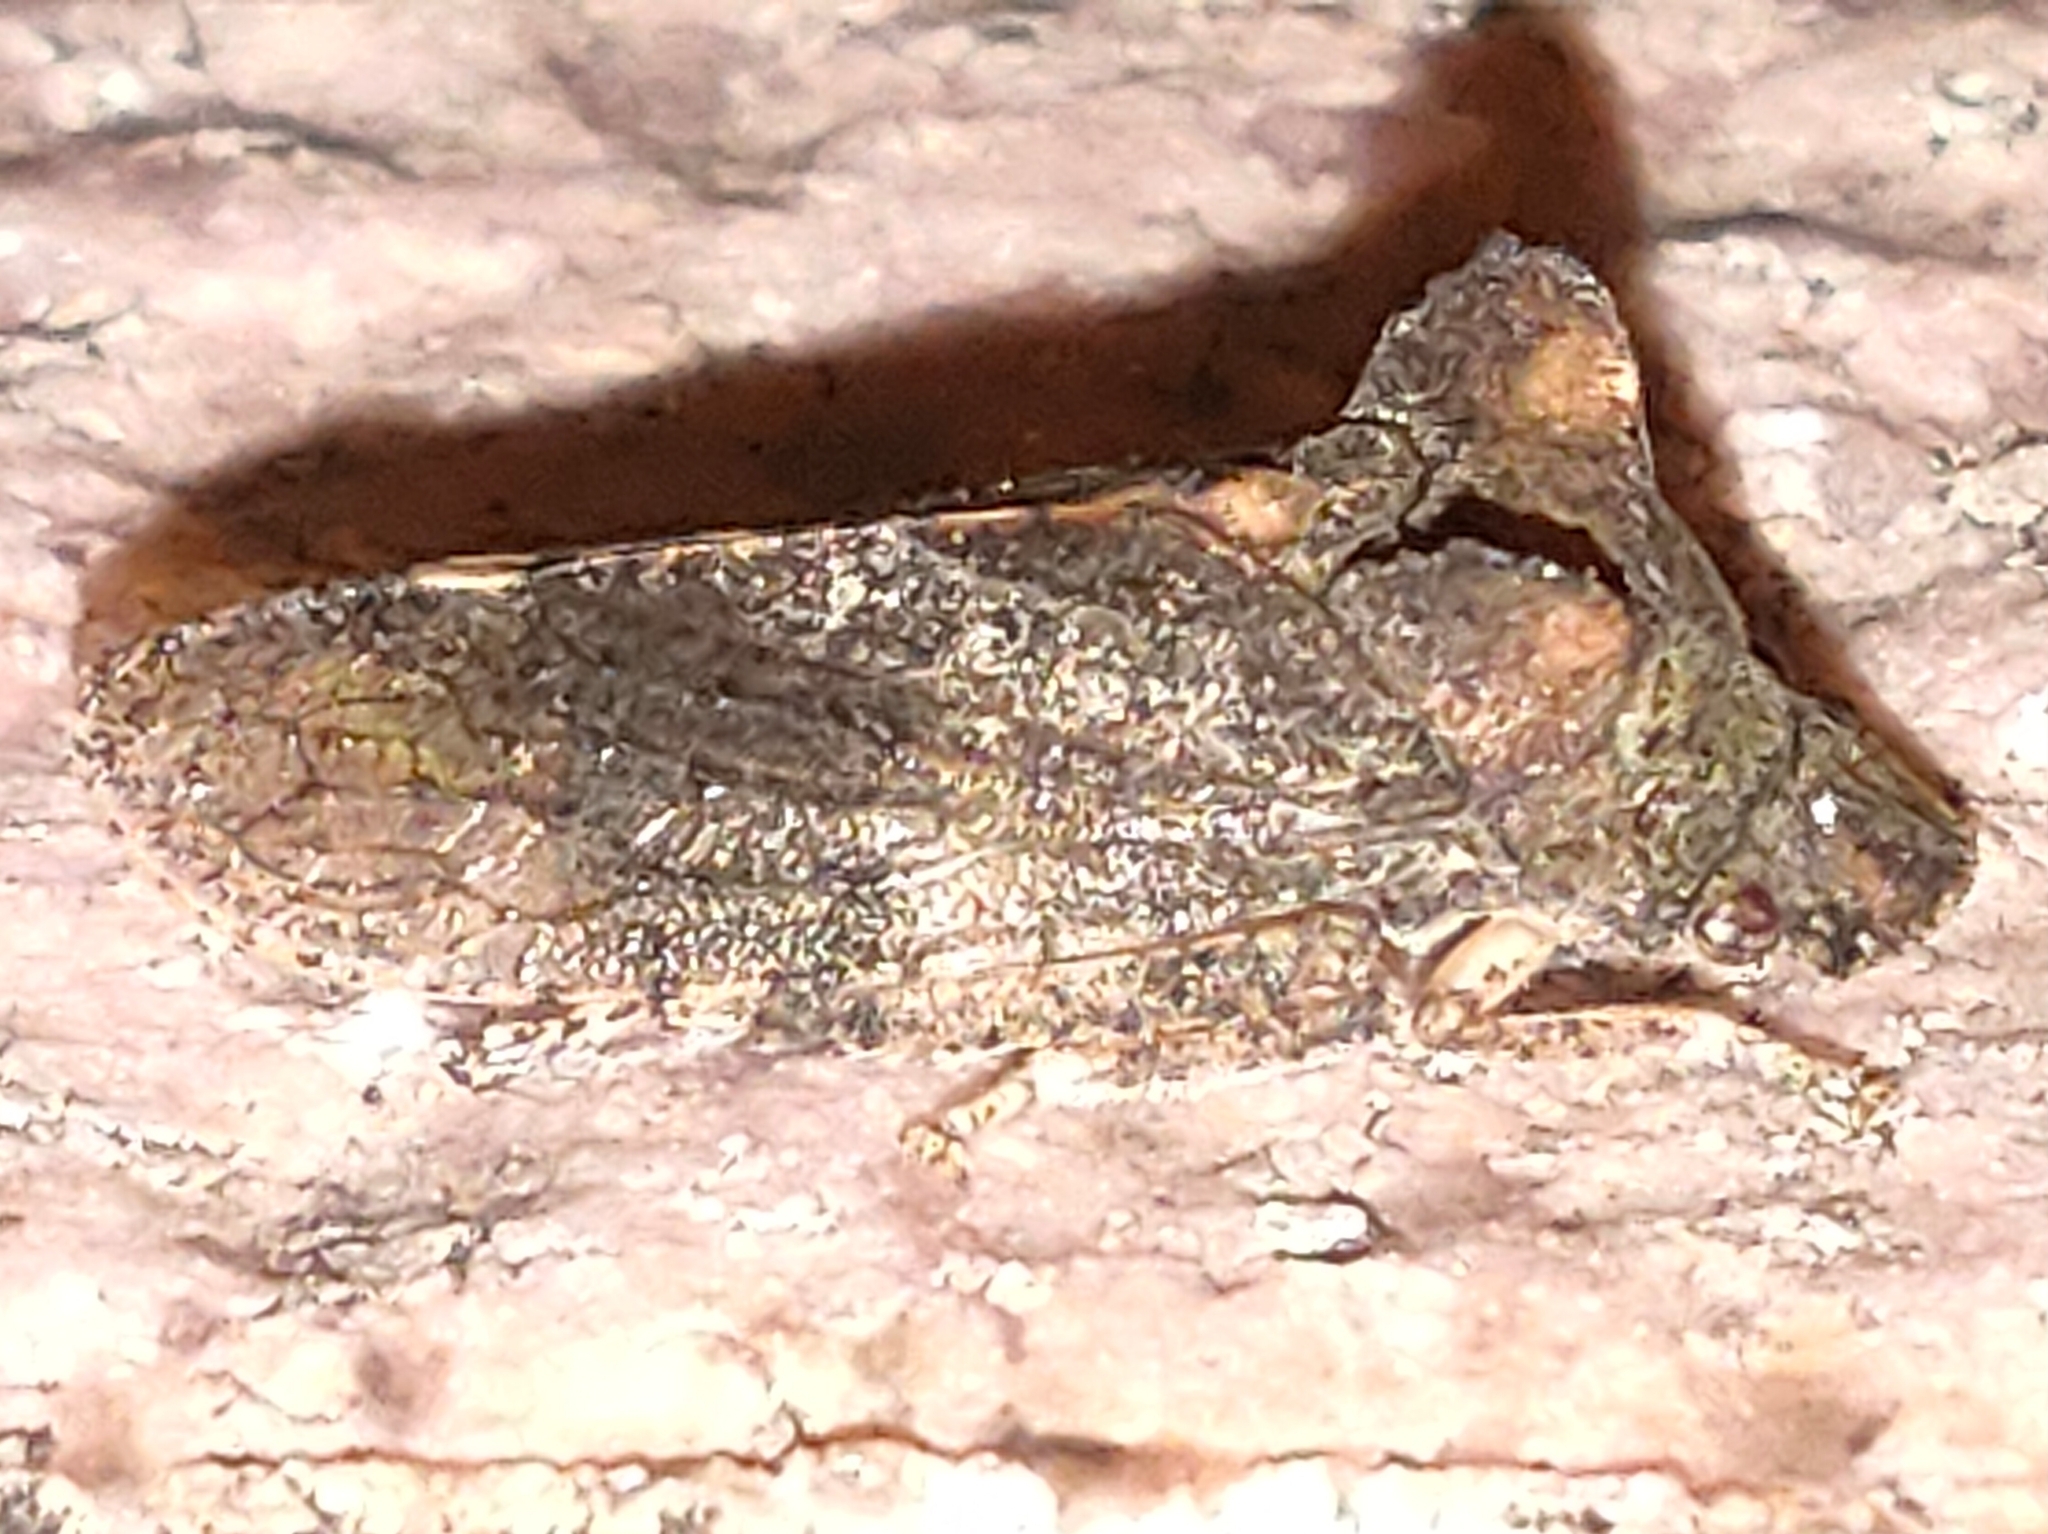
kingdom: Animalia
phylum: Arthropoda
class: Insecta
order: Hemiptera
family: Cicadellidae
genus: Ledra
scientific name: Ledra auditura
